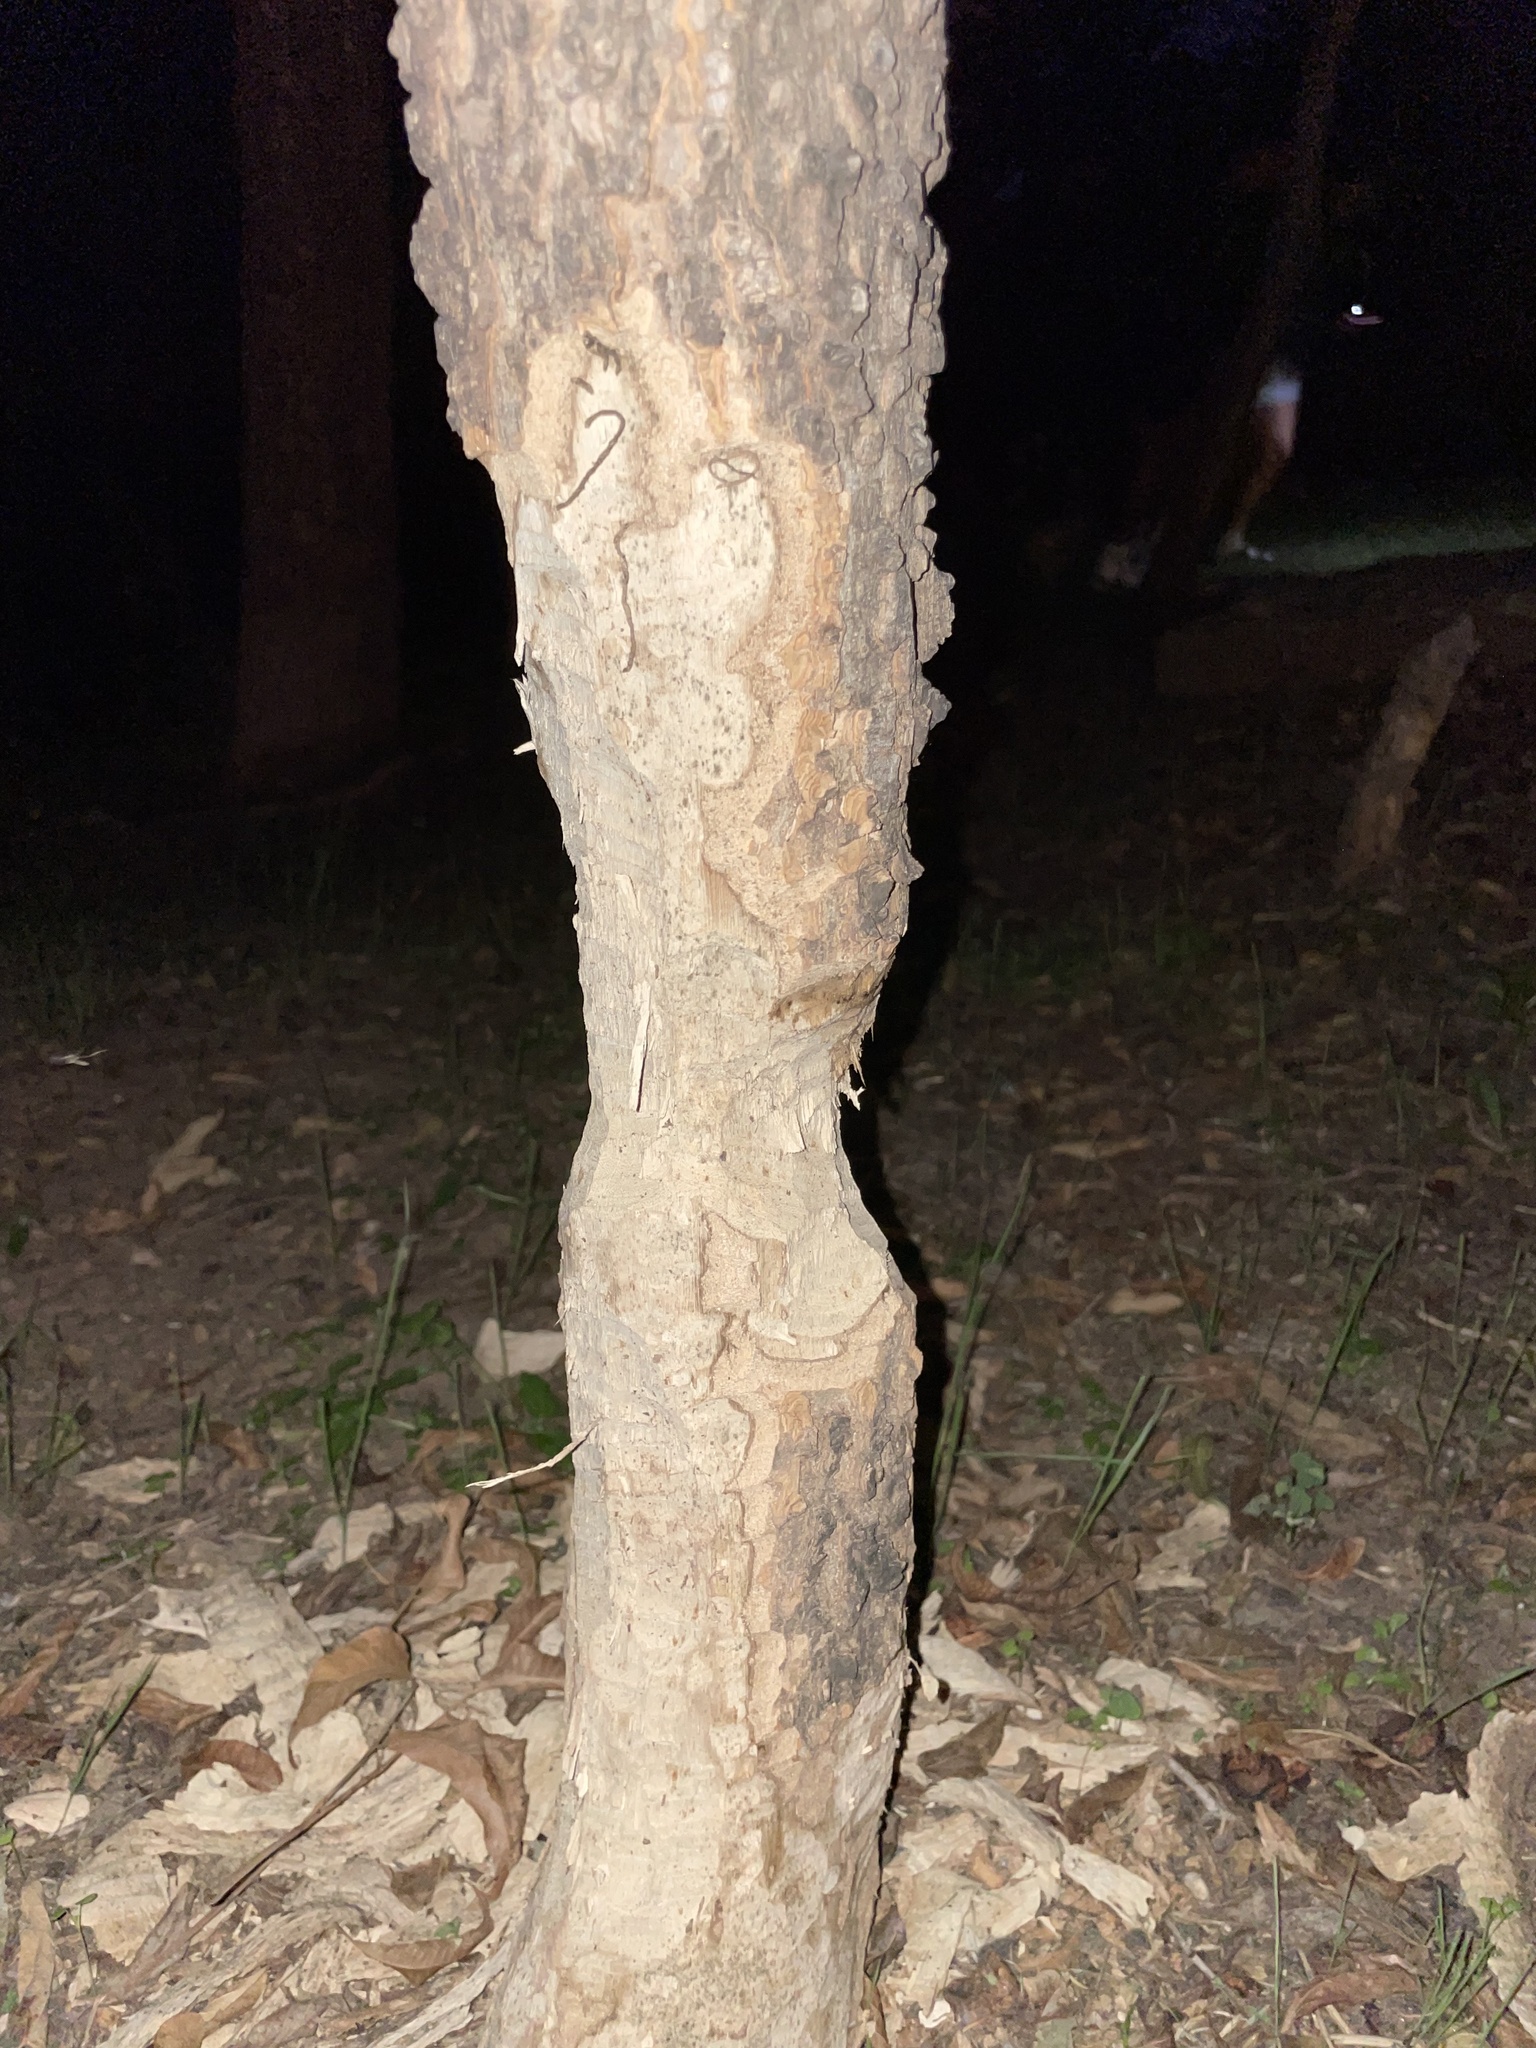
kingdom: Animalia
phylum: Chordata
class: Mammalia
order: Rodentia
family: Castoridae
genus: Castor
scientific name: Castor canadensis
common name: American beaver
